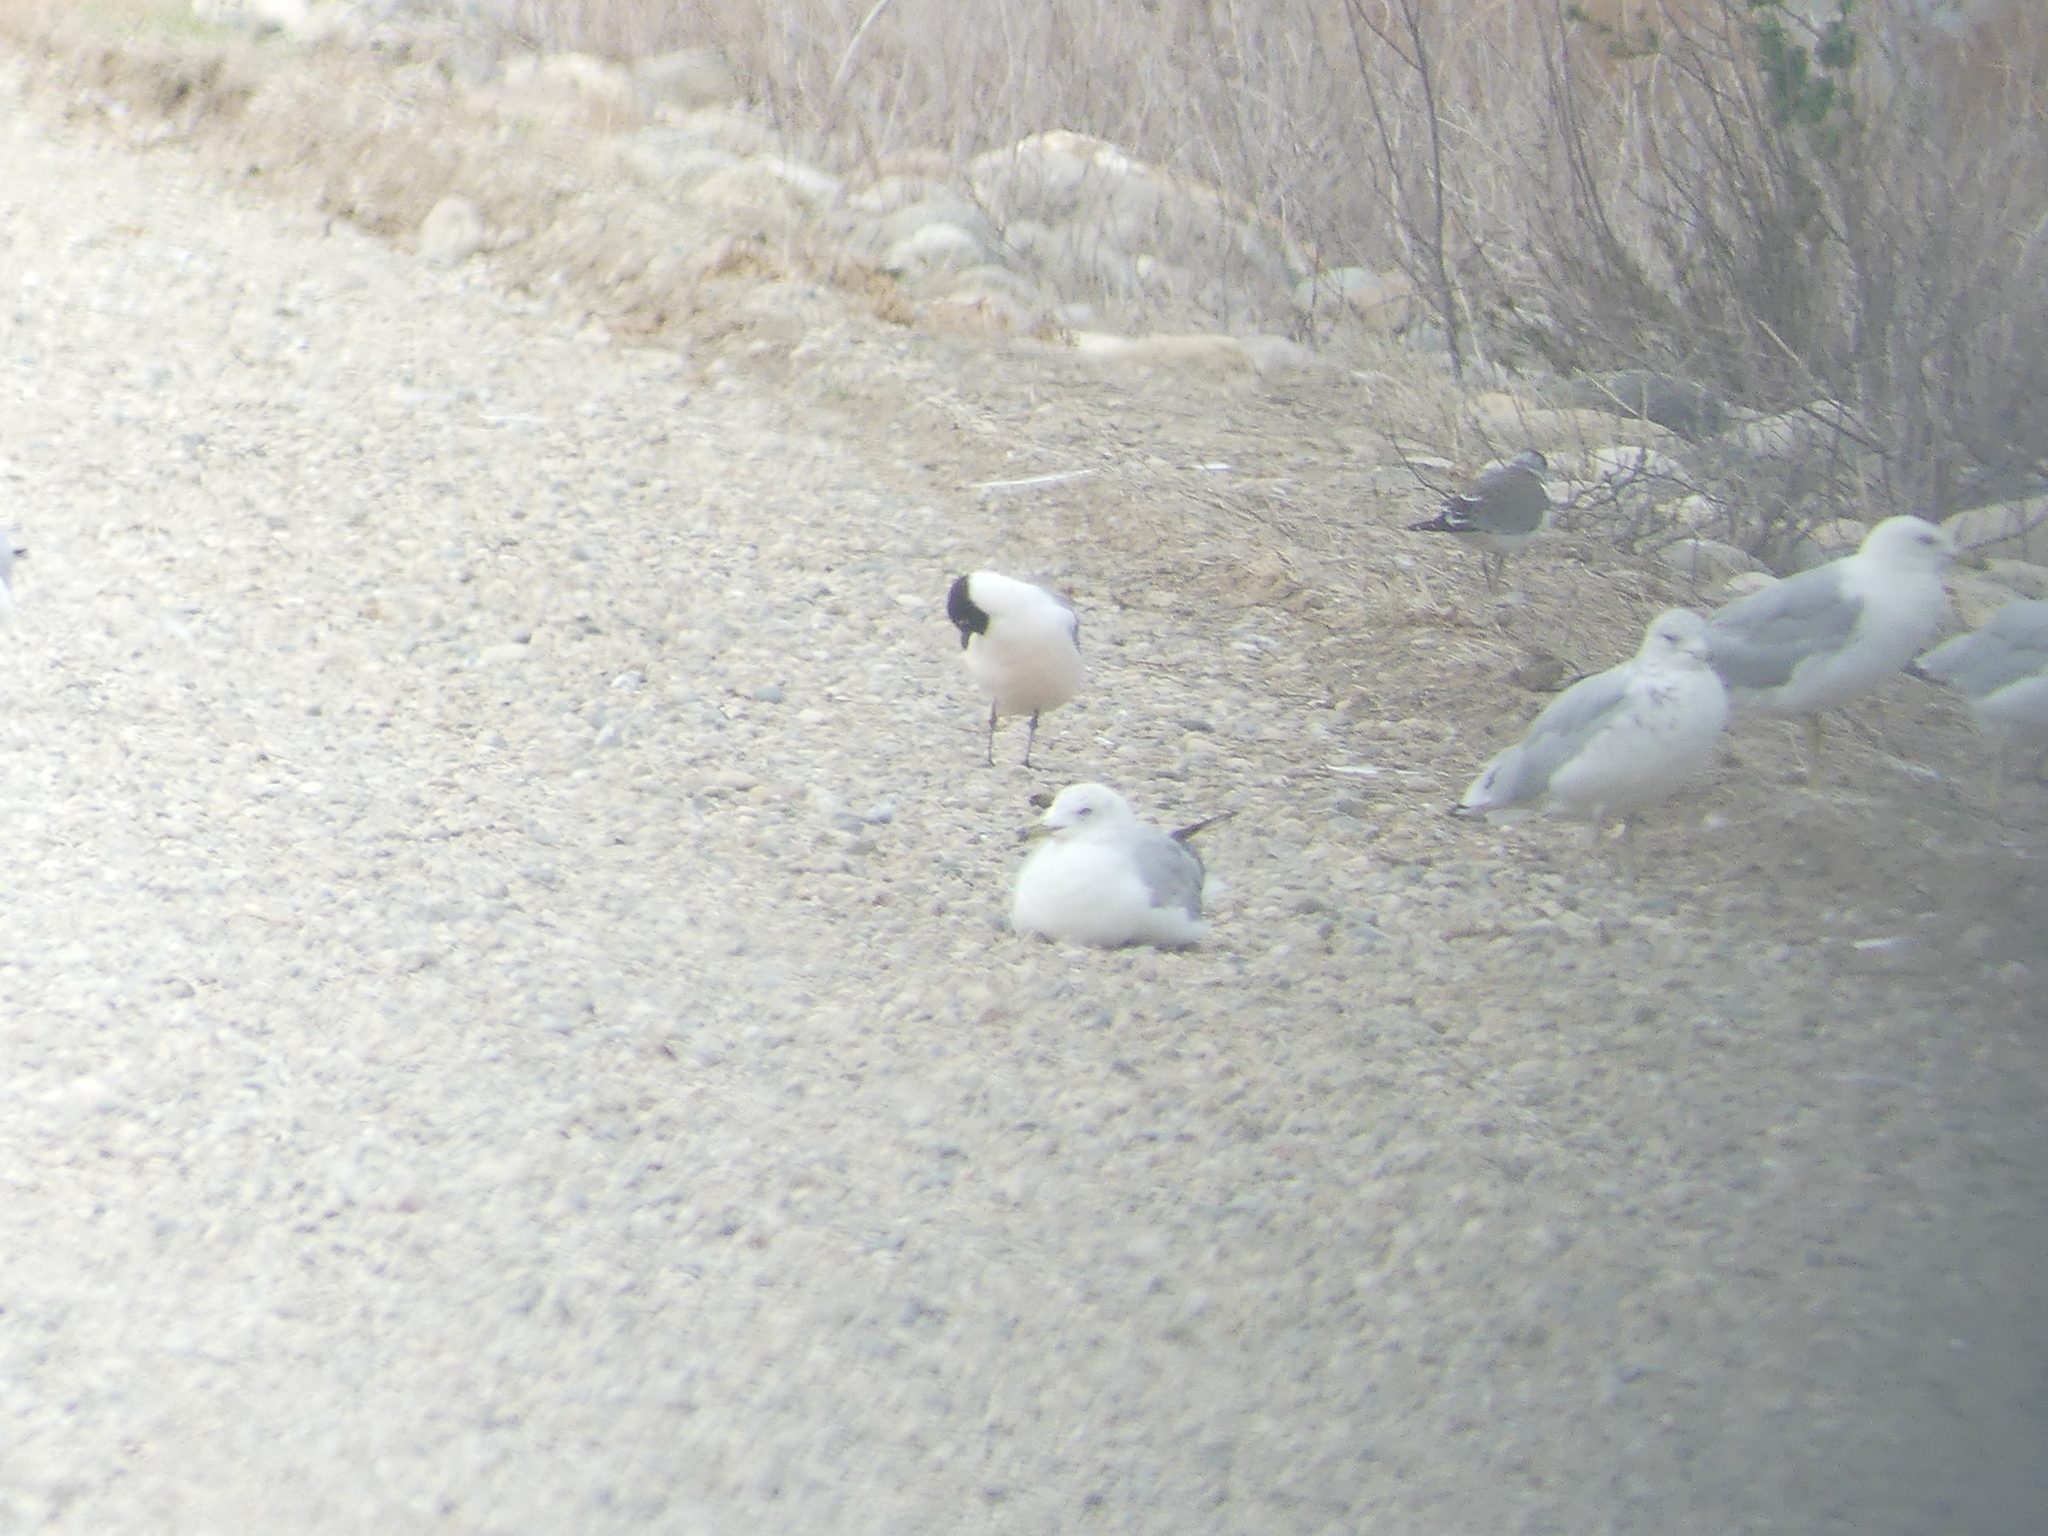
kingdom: Animalia
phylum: Chordata
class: Aves
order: Charadriiformes
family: Laridae
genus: Larus
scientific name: Larus delawarensis
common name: Ring-billed gull
